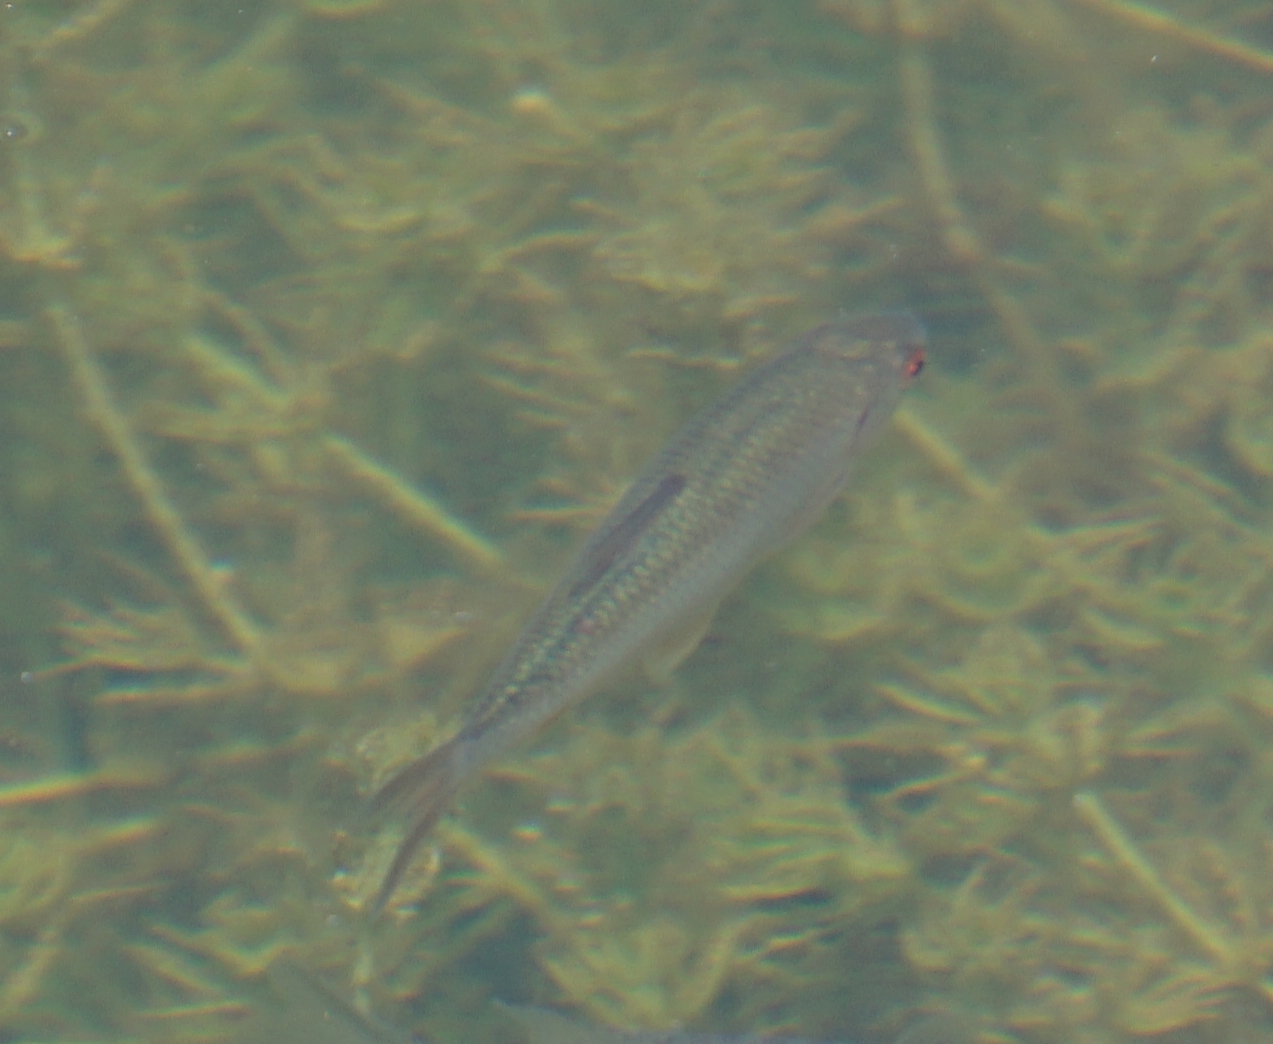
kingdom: Animalia
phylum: Chordata
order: Cypriniformes
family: Cyprinidae
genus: Rutilus
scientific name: Rutilus rutilus
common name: Roach
